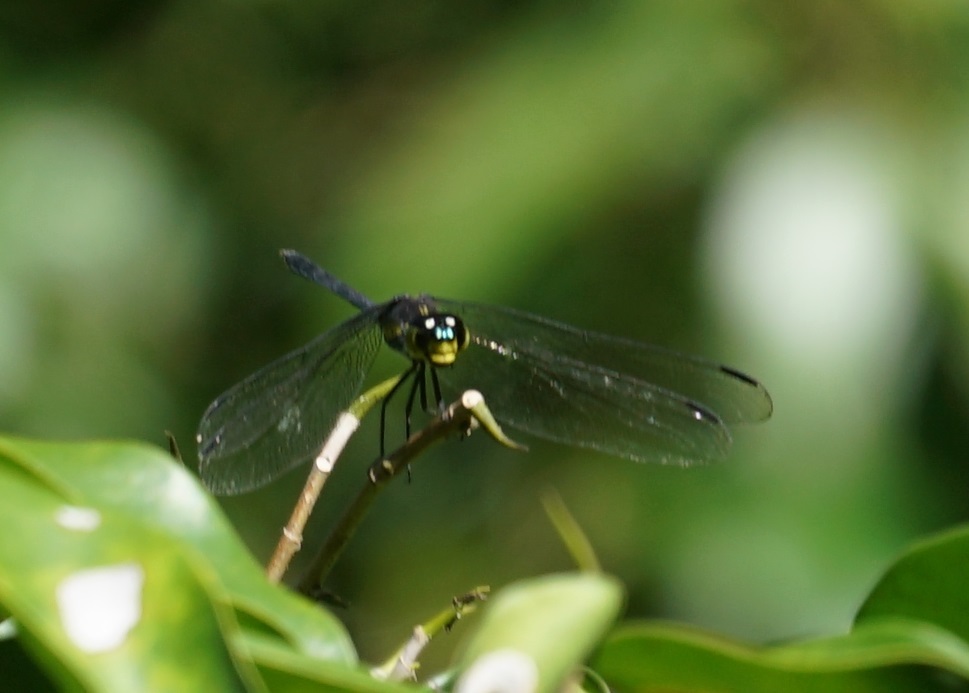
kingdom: Animalia
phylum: Arthropoda
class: Insecta
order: Odonata
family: Libellulidae
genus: Agrionoptera
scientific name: Agrionoptera longitudinalis
